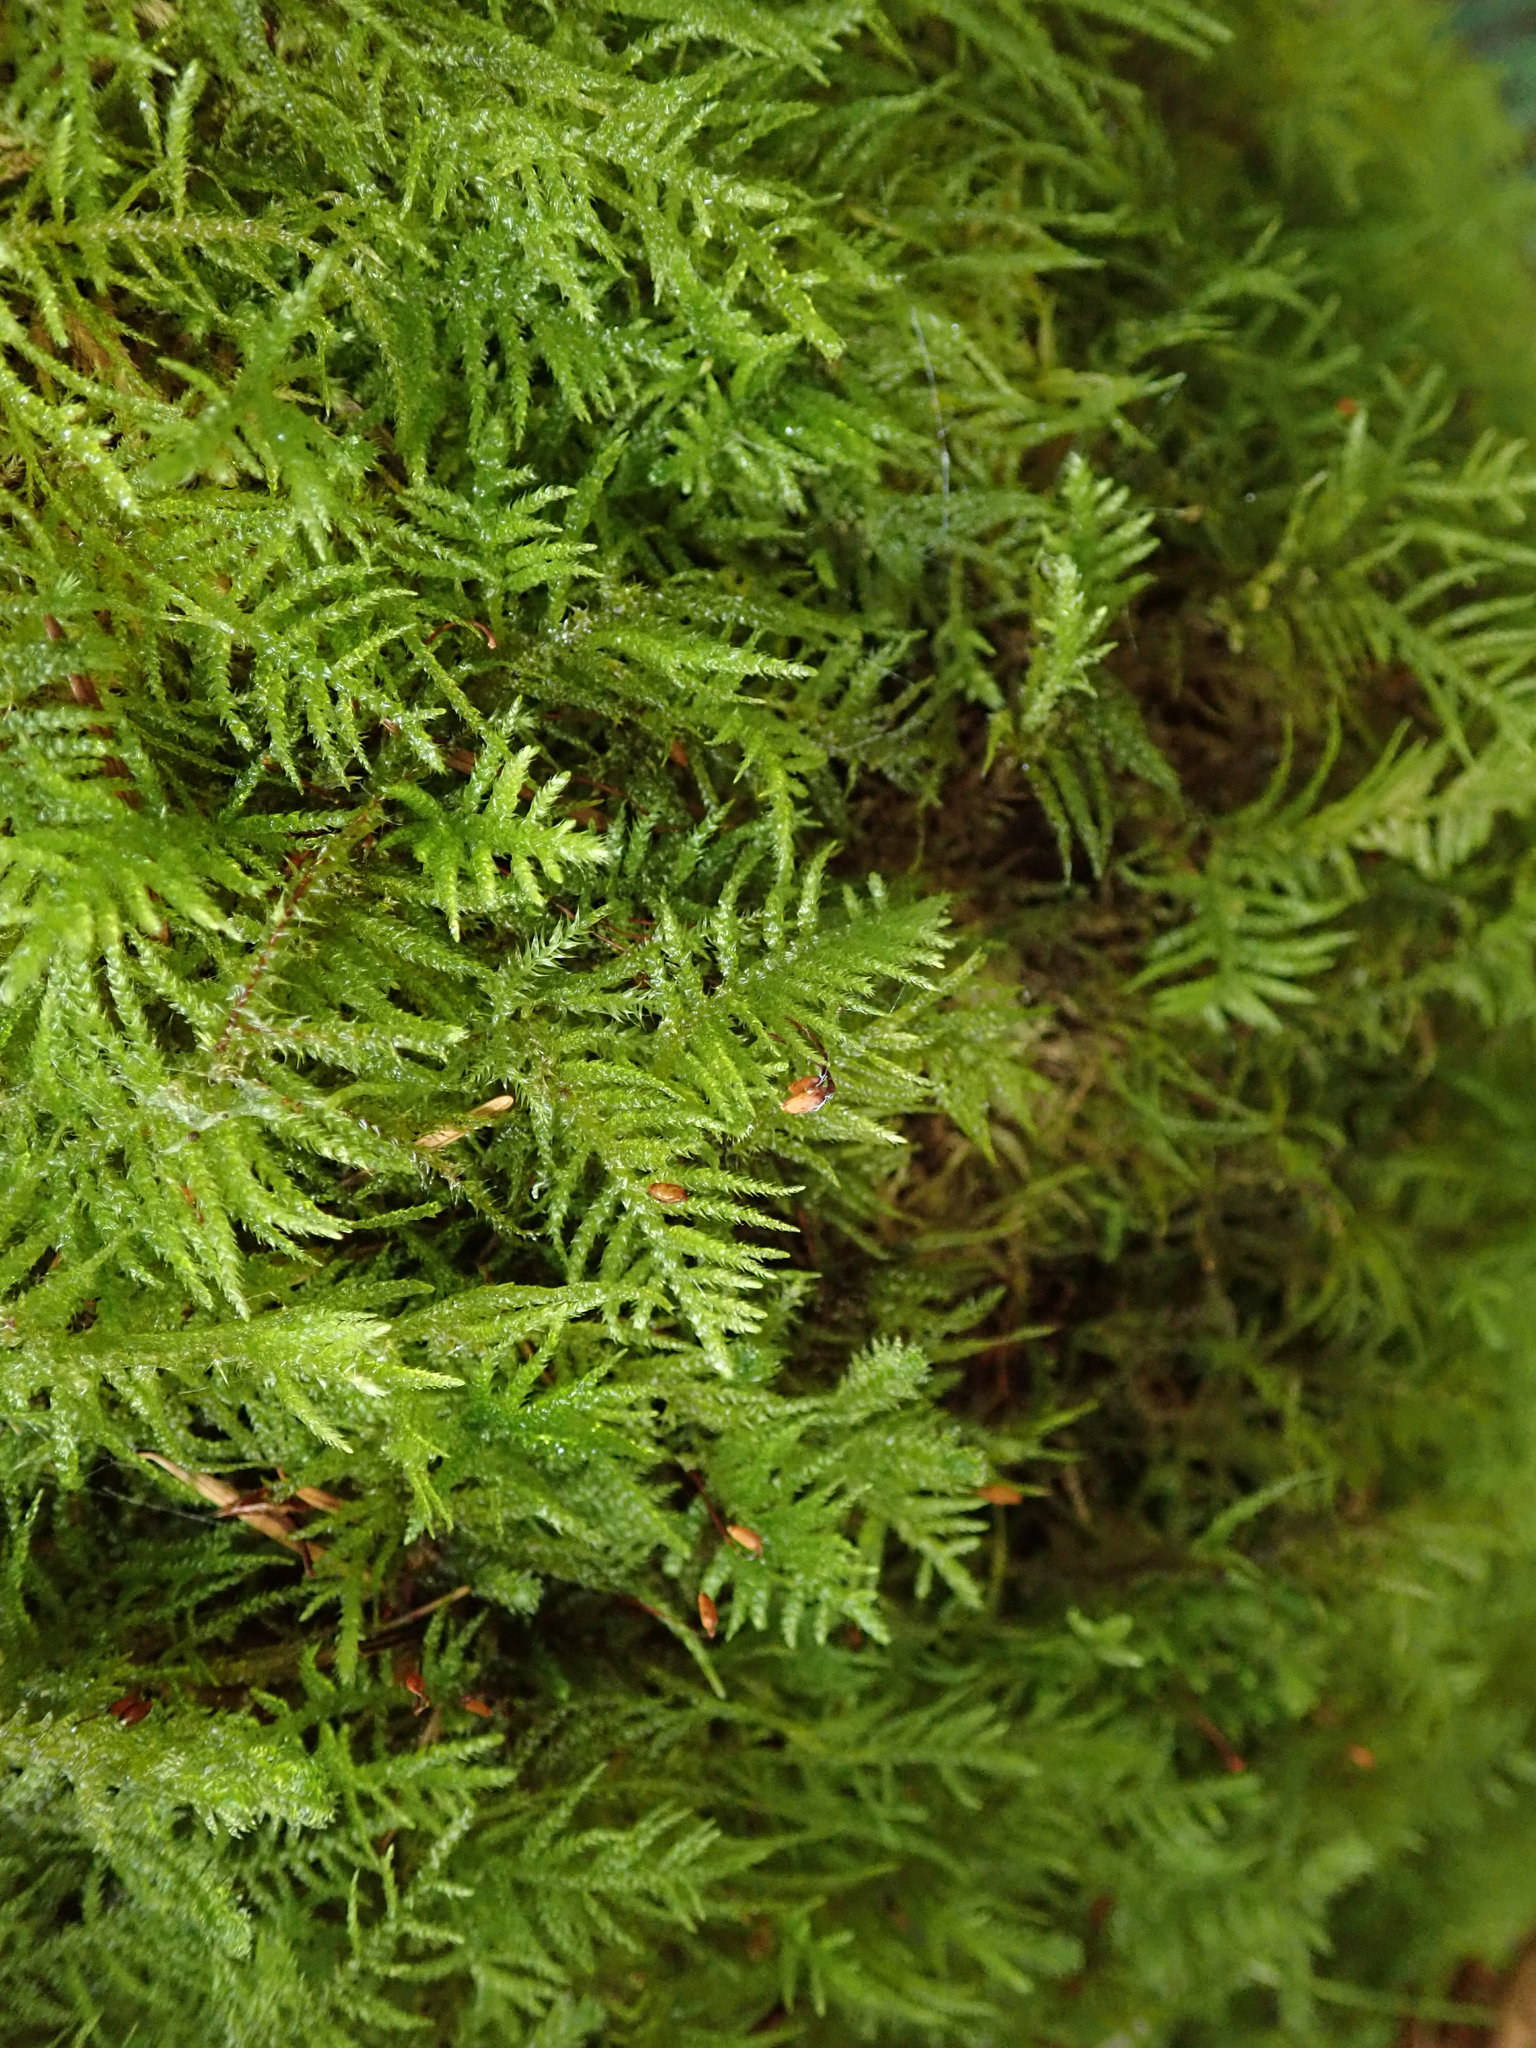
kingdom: Plantae
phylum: Bryophyta
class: Bryopsida
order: Hypnales
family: Brachytheciaceae
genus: Kindbergia
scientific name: Kindbergia oregana
